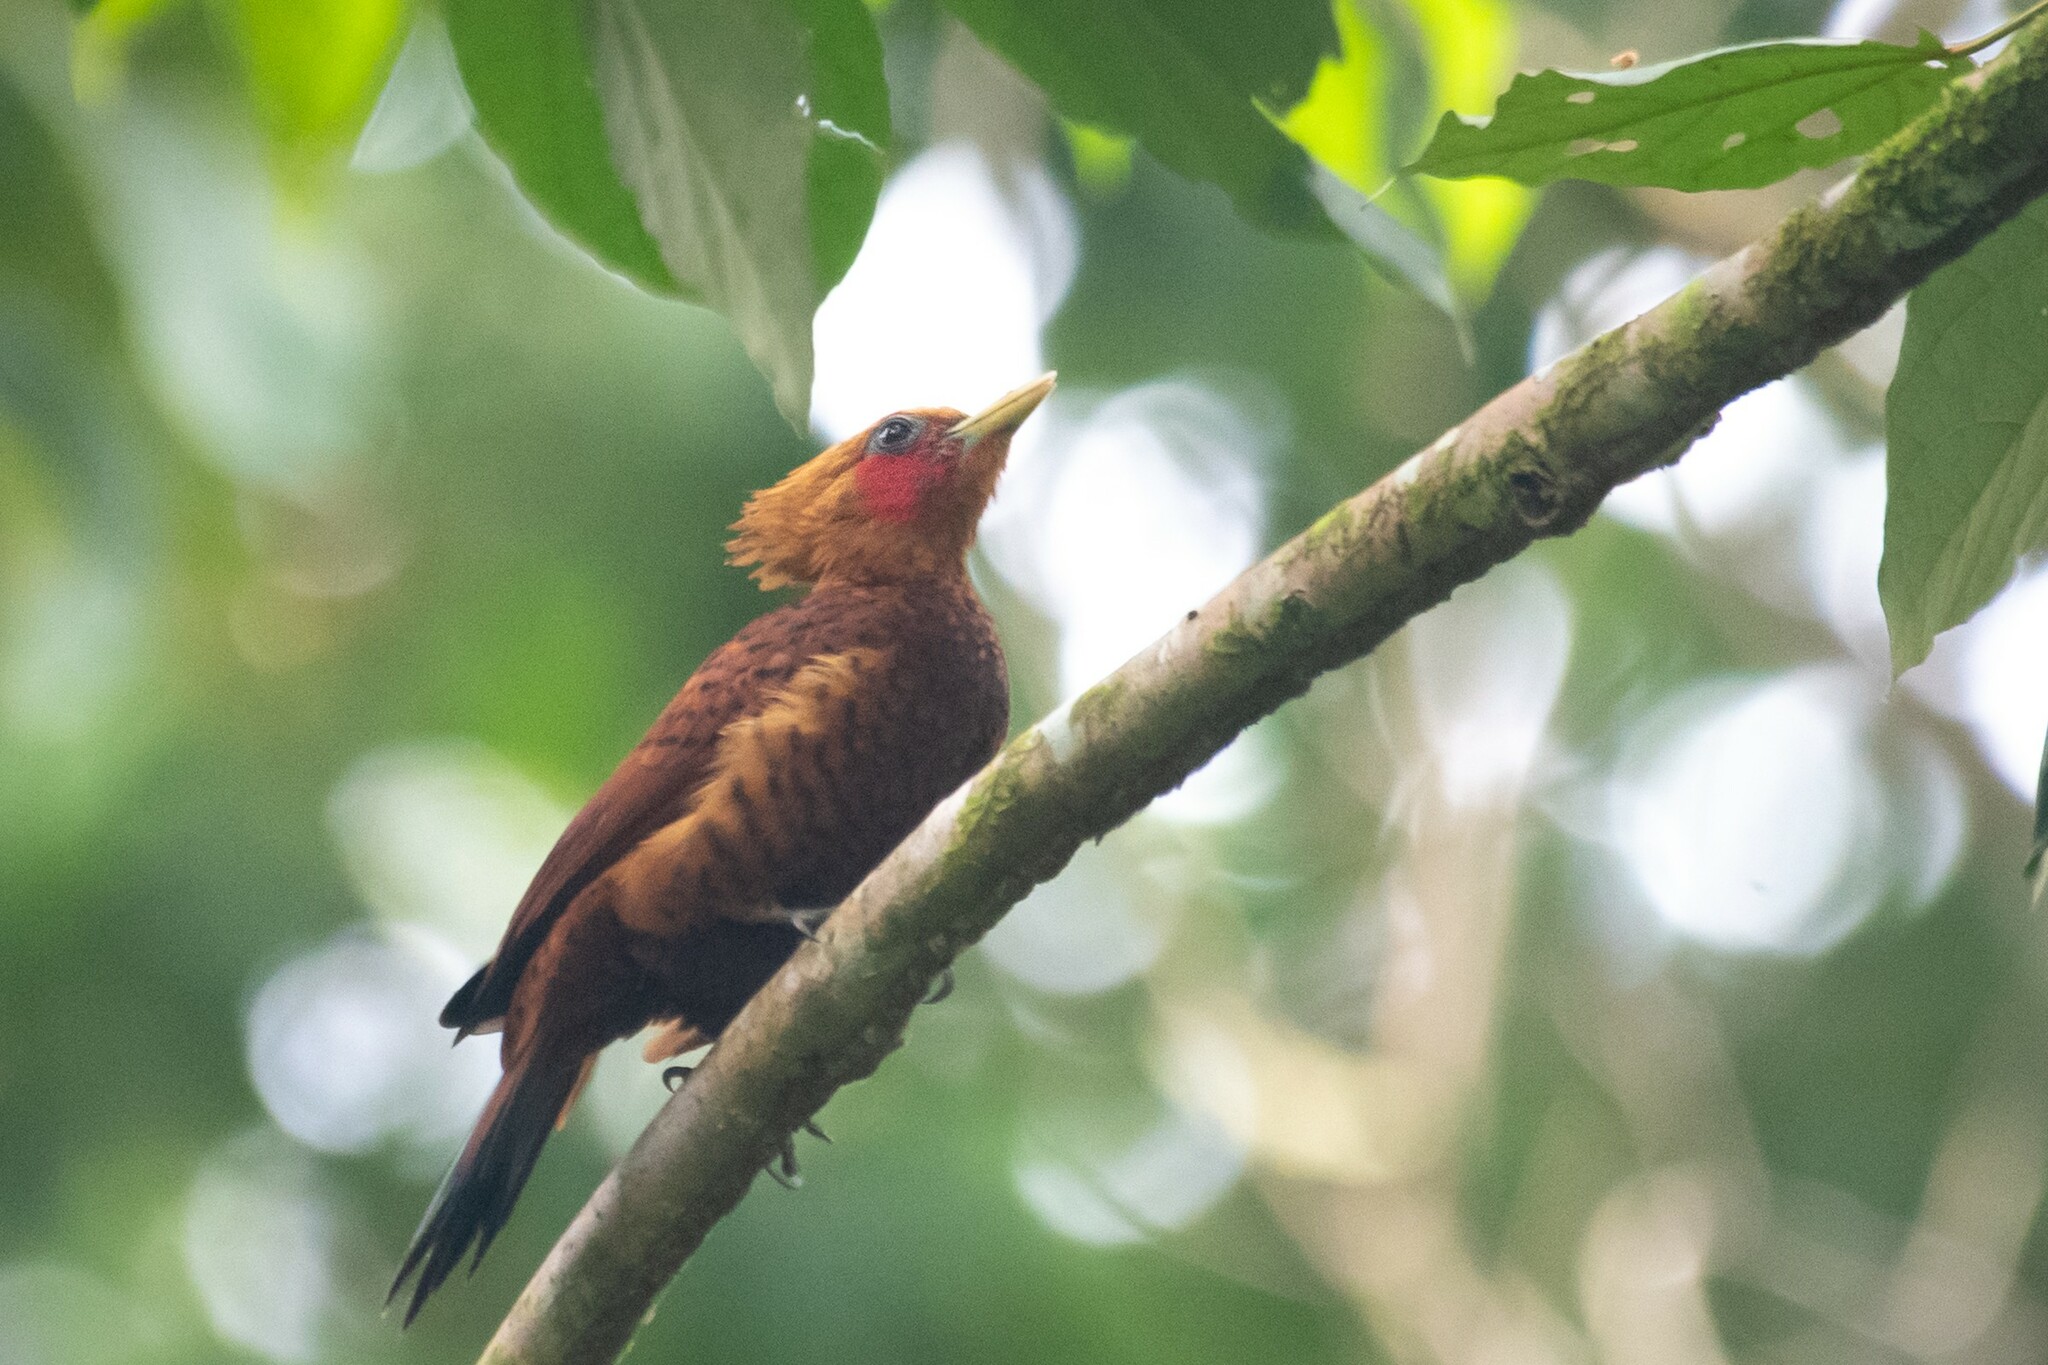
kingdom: Animalia
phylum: Chordata
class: Aves
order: Piciformes
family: Picidae
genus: Celeus
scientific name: Celeus castaneus
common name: Chestnut-colored woodpecker
